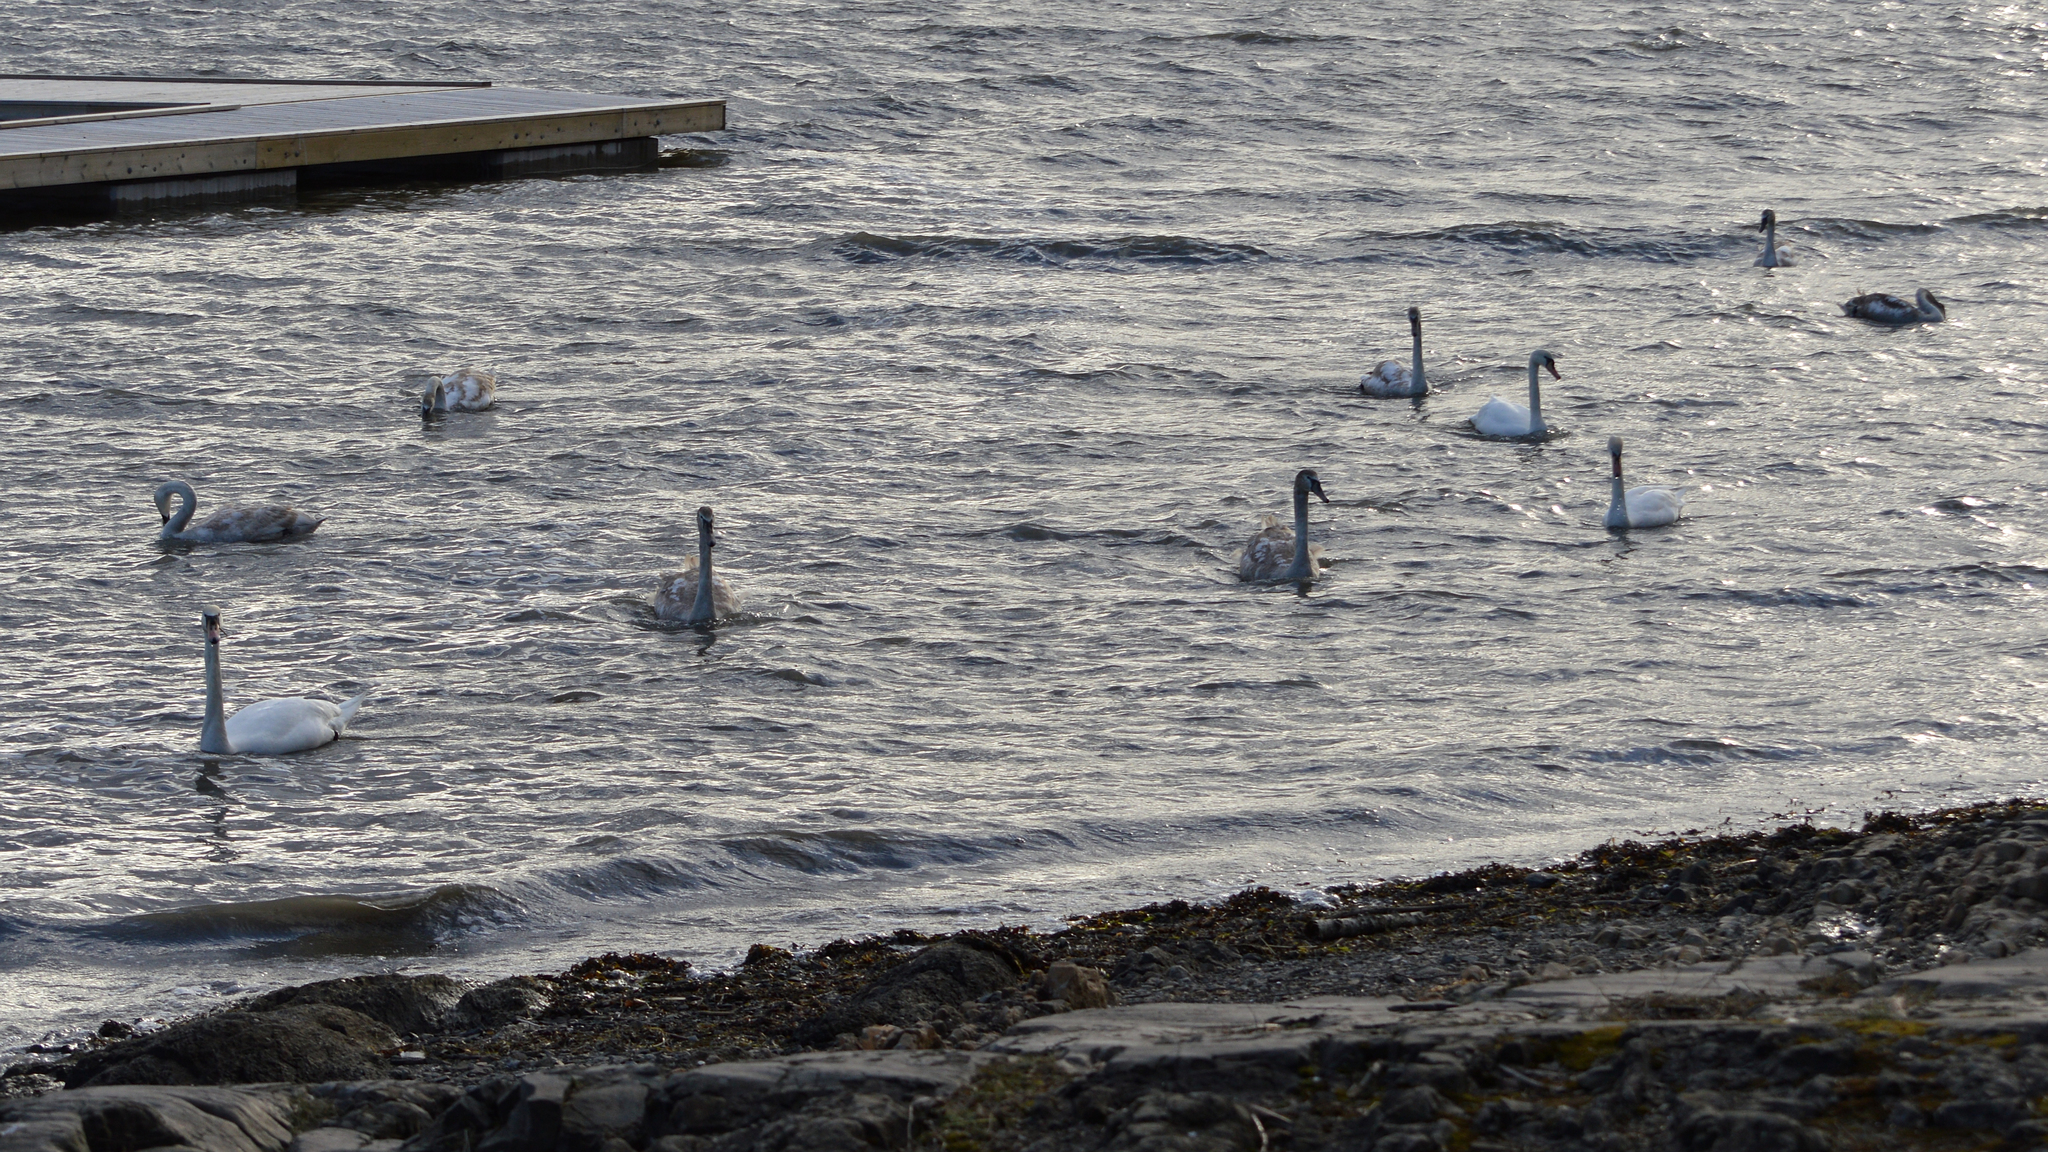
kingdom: Animalia
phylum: Chordata
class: Aves
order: Anseriformes
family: Anatidae
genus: Cygnus
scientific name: Cygnus olor
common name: Mute swan
